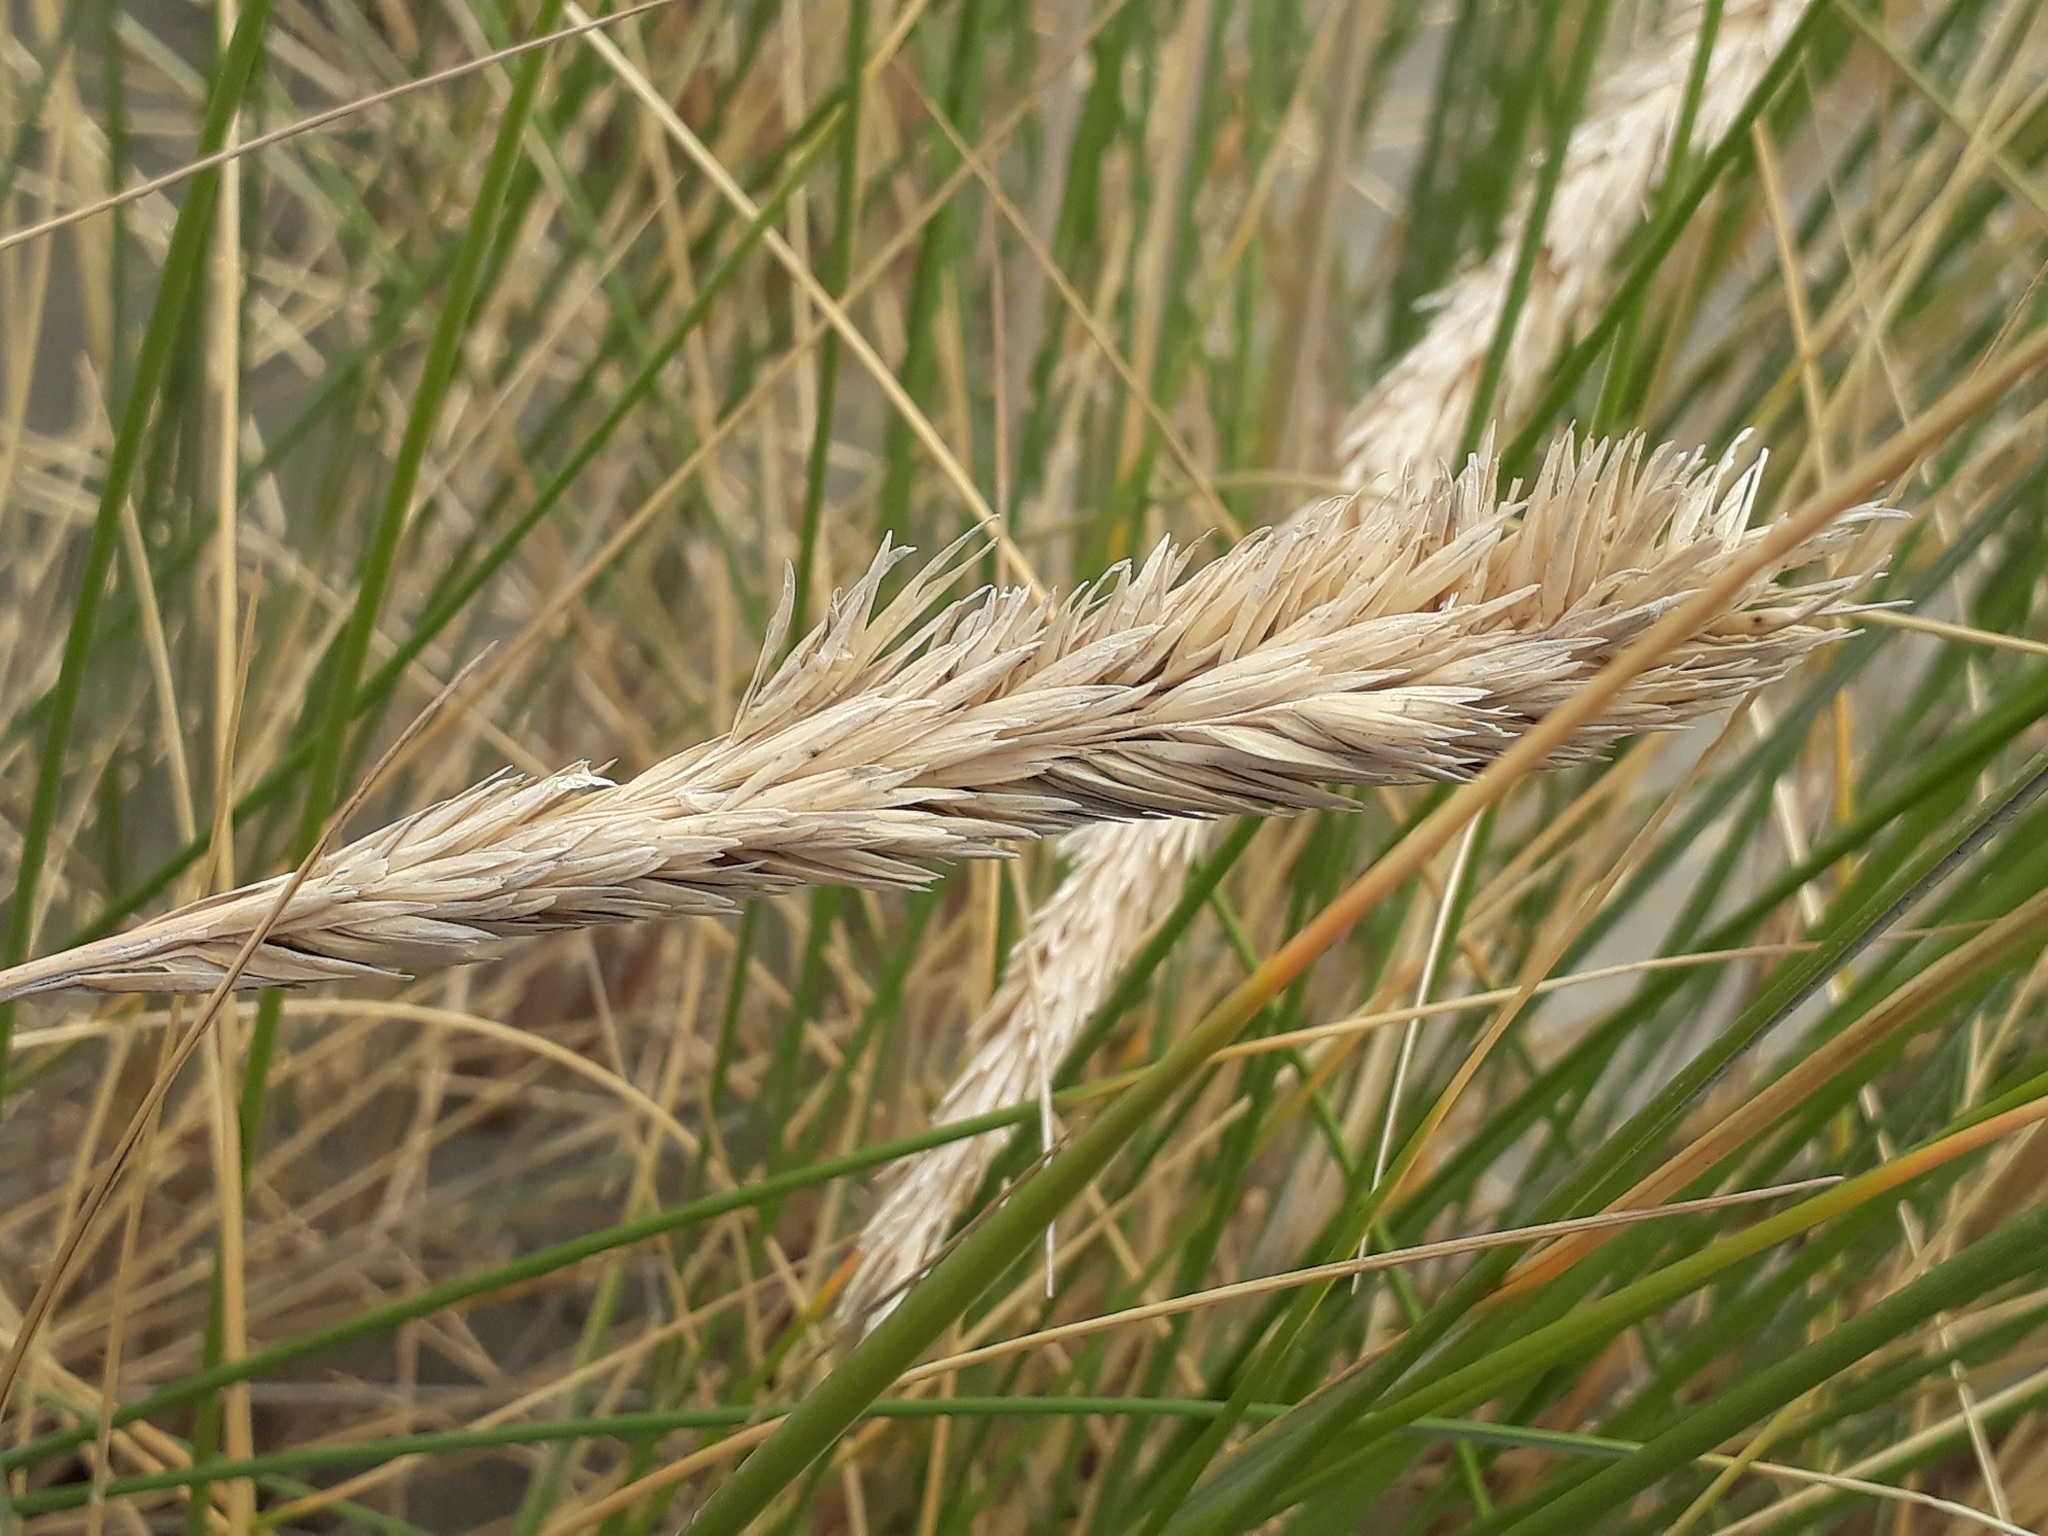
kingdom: Plantae
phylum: Tracheophyta
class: Liliopsida
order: Poales
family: Poaceae
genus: Calamagrostis
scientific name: Calamagrostis arenaria
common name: European beachgrass
